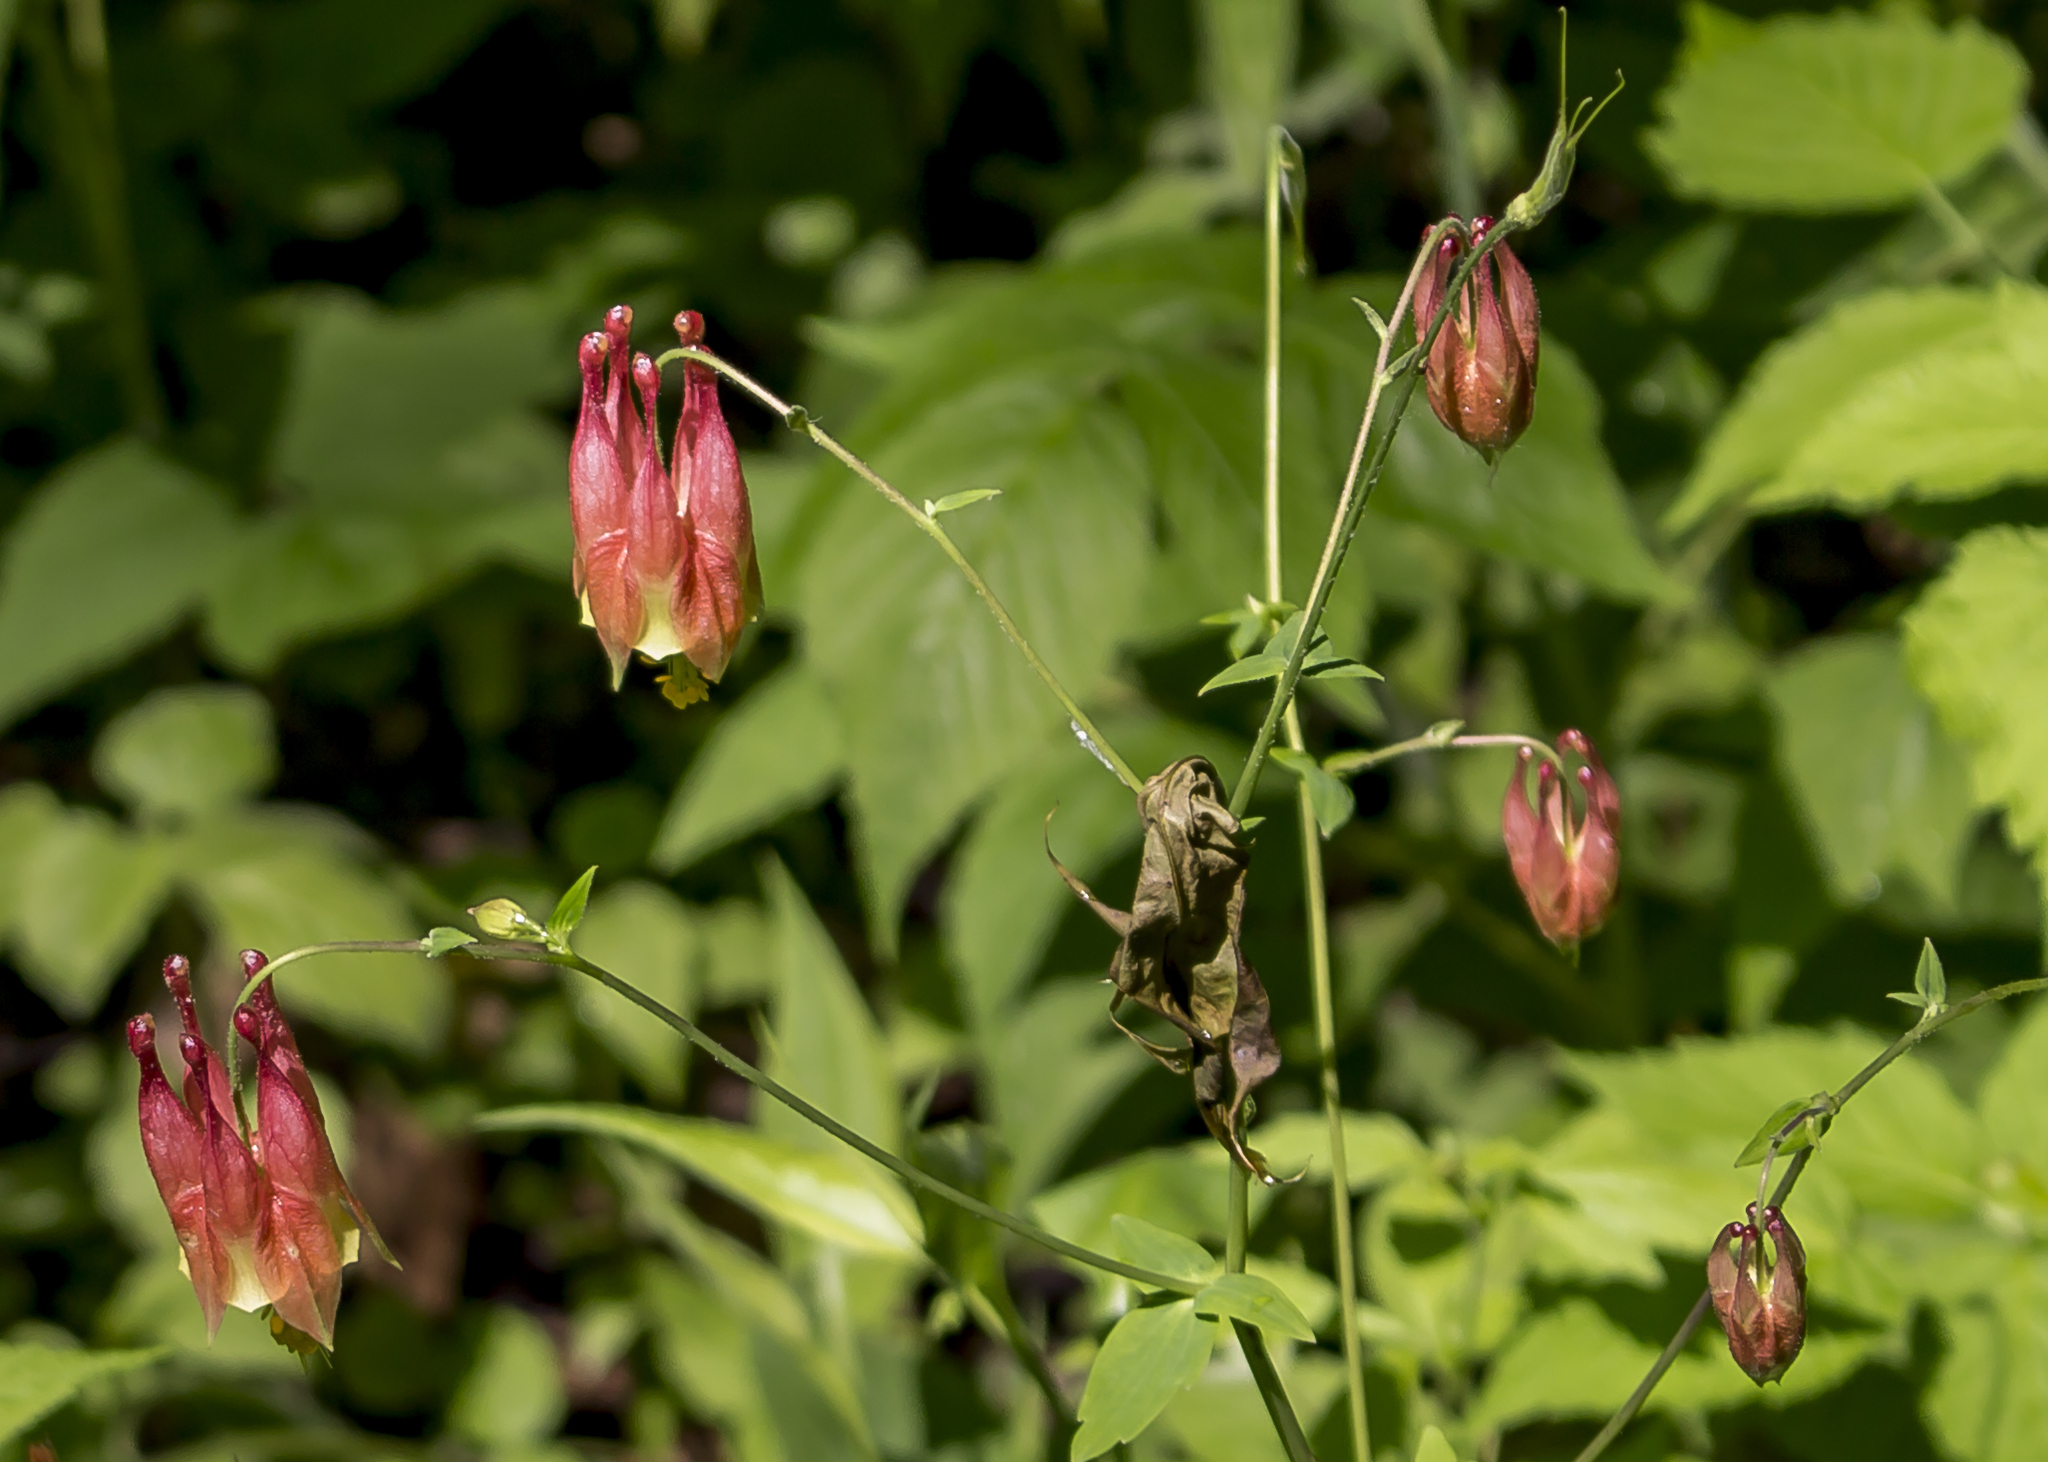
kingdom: Plantae
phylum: Tracheophyta
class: Magnoliopsida
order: Ranunculales
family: Ranunculaceae
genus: Aquilegia
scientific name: Aquilegia canadensis
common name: American columbine
